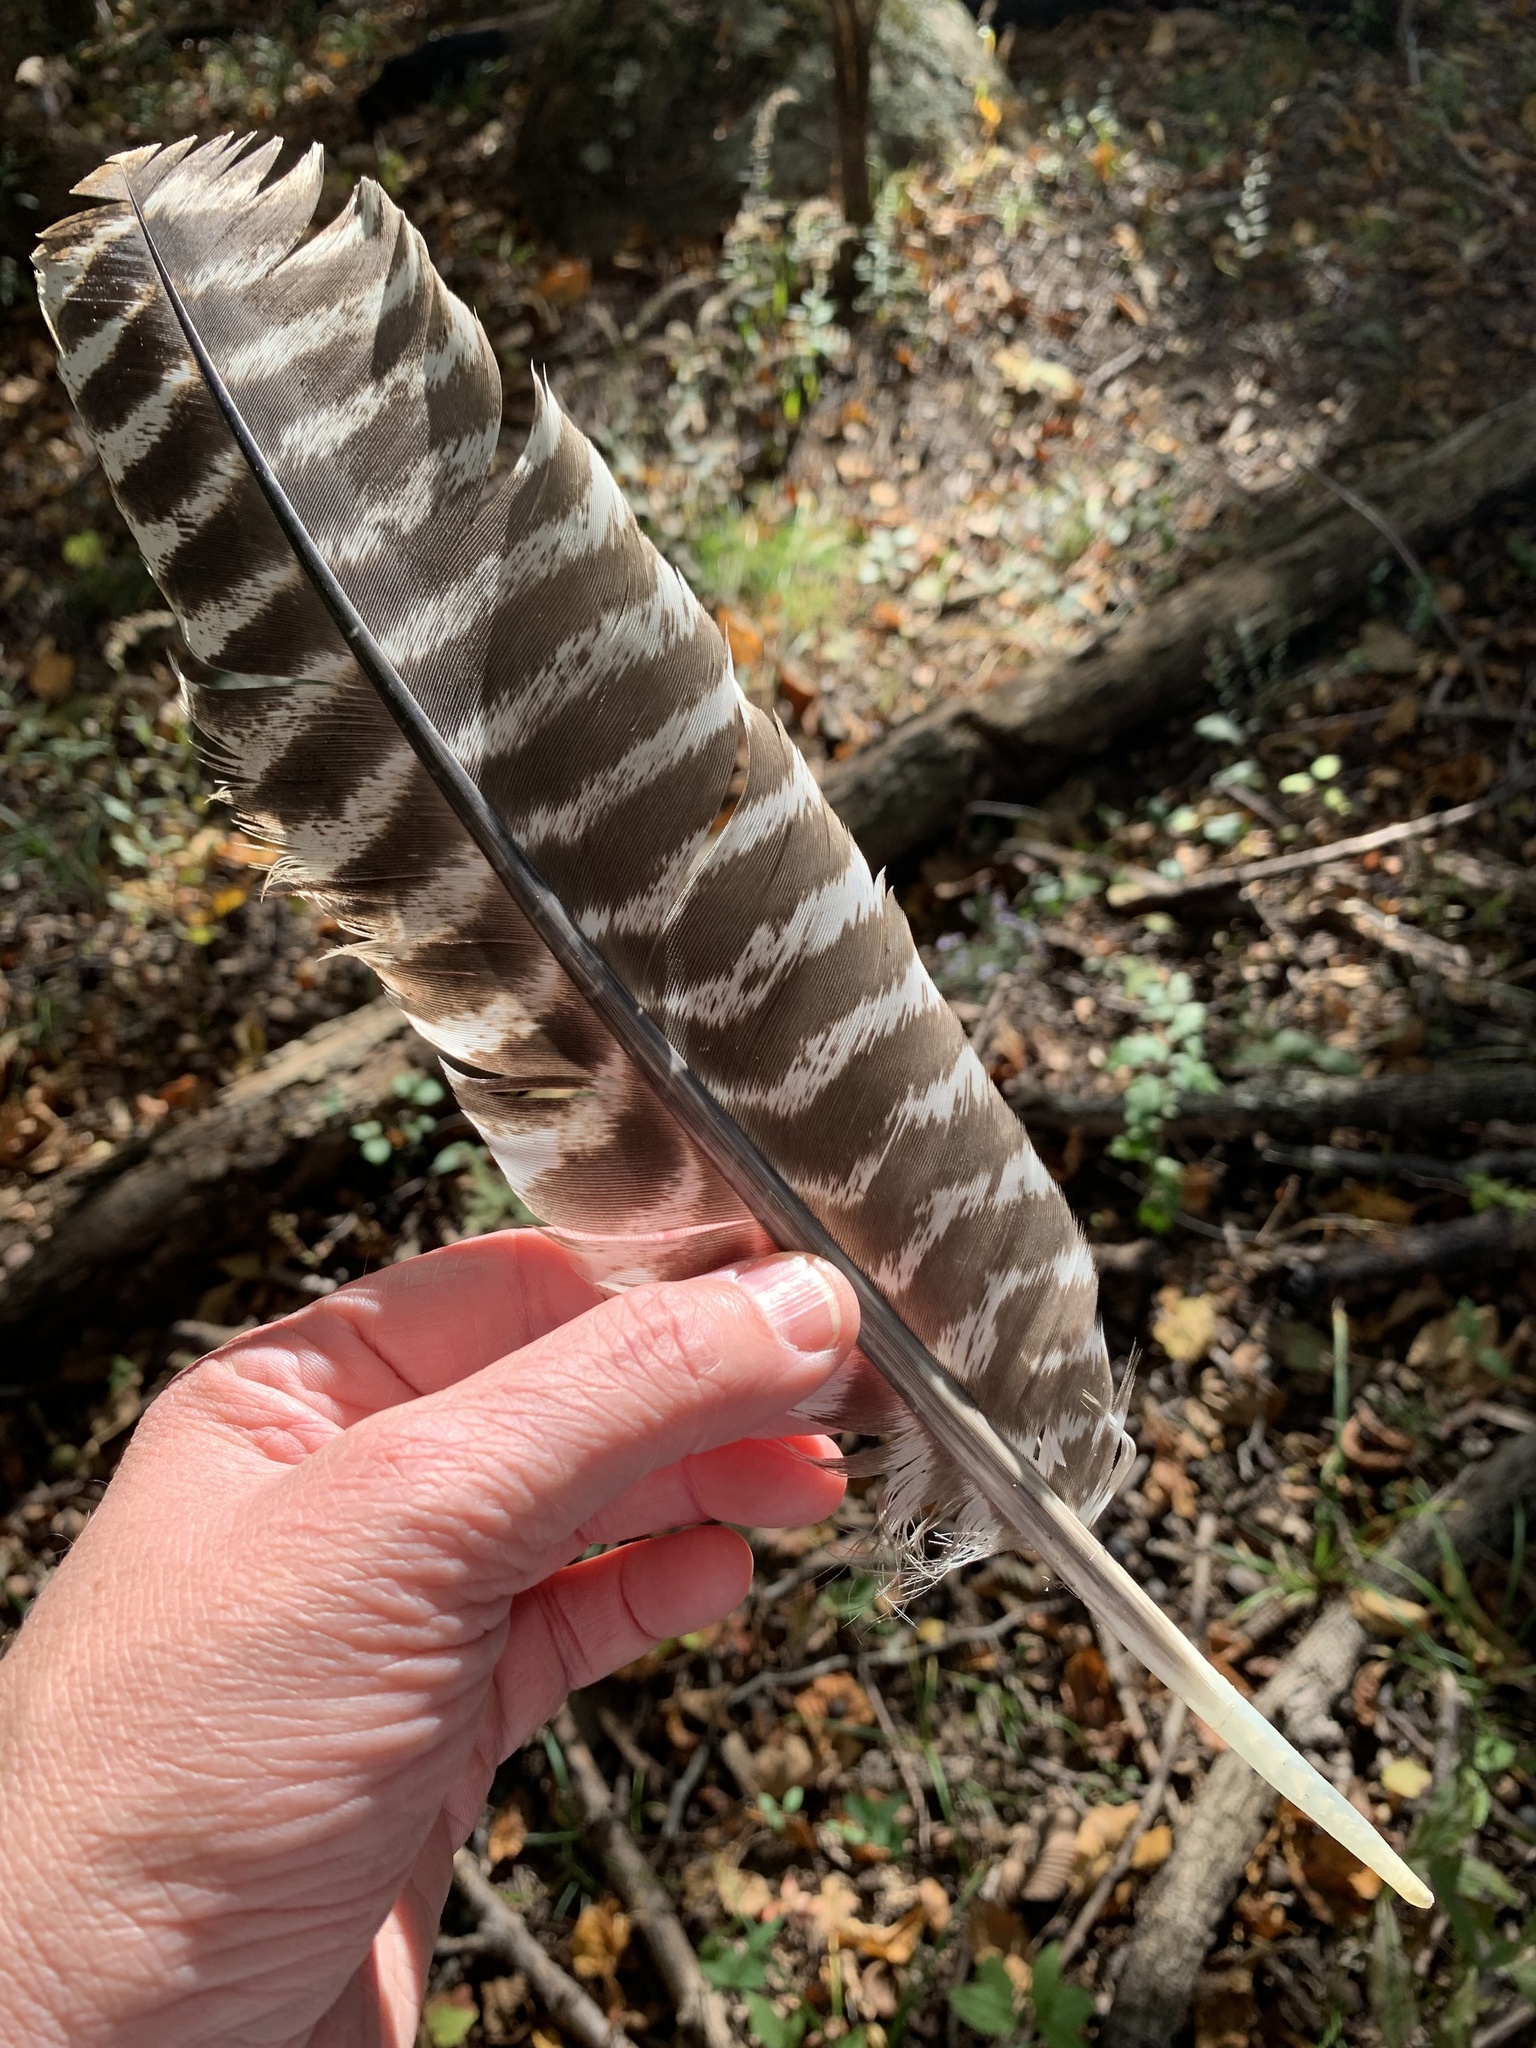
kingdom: Animalia
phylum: Chordata
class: Aves
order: Galliformes
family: Phasianidae
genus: Meleagris
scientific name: Meleagris gallopavo
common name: Wild turkey
